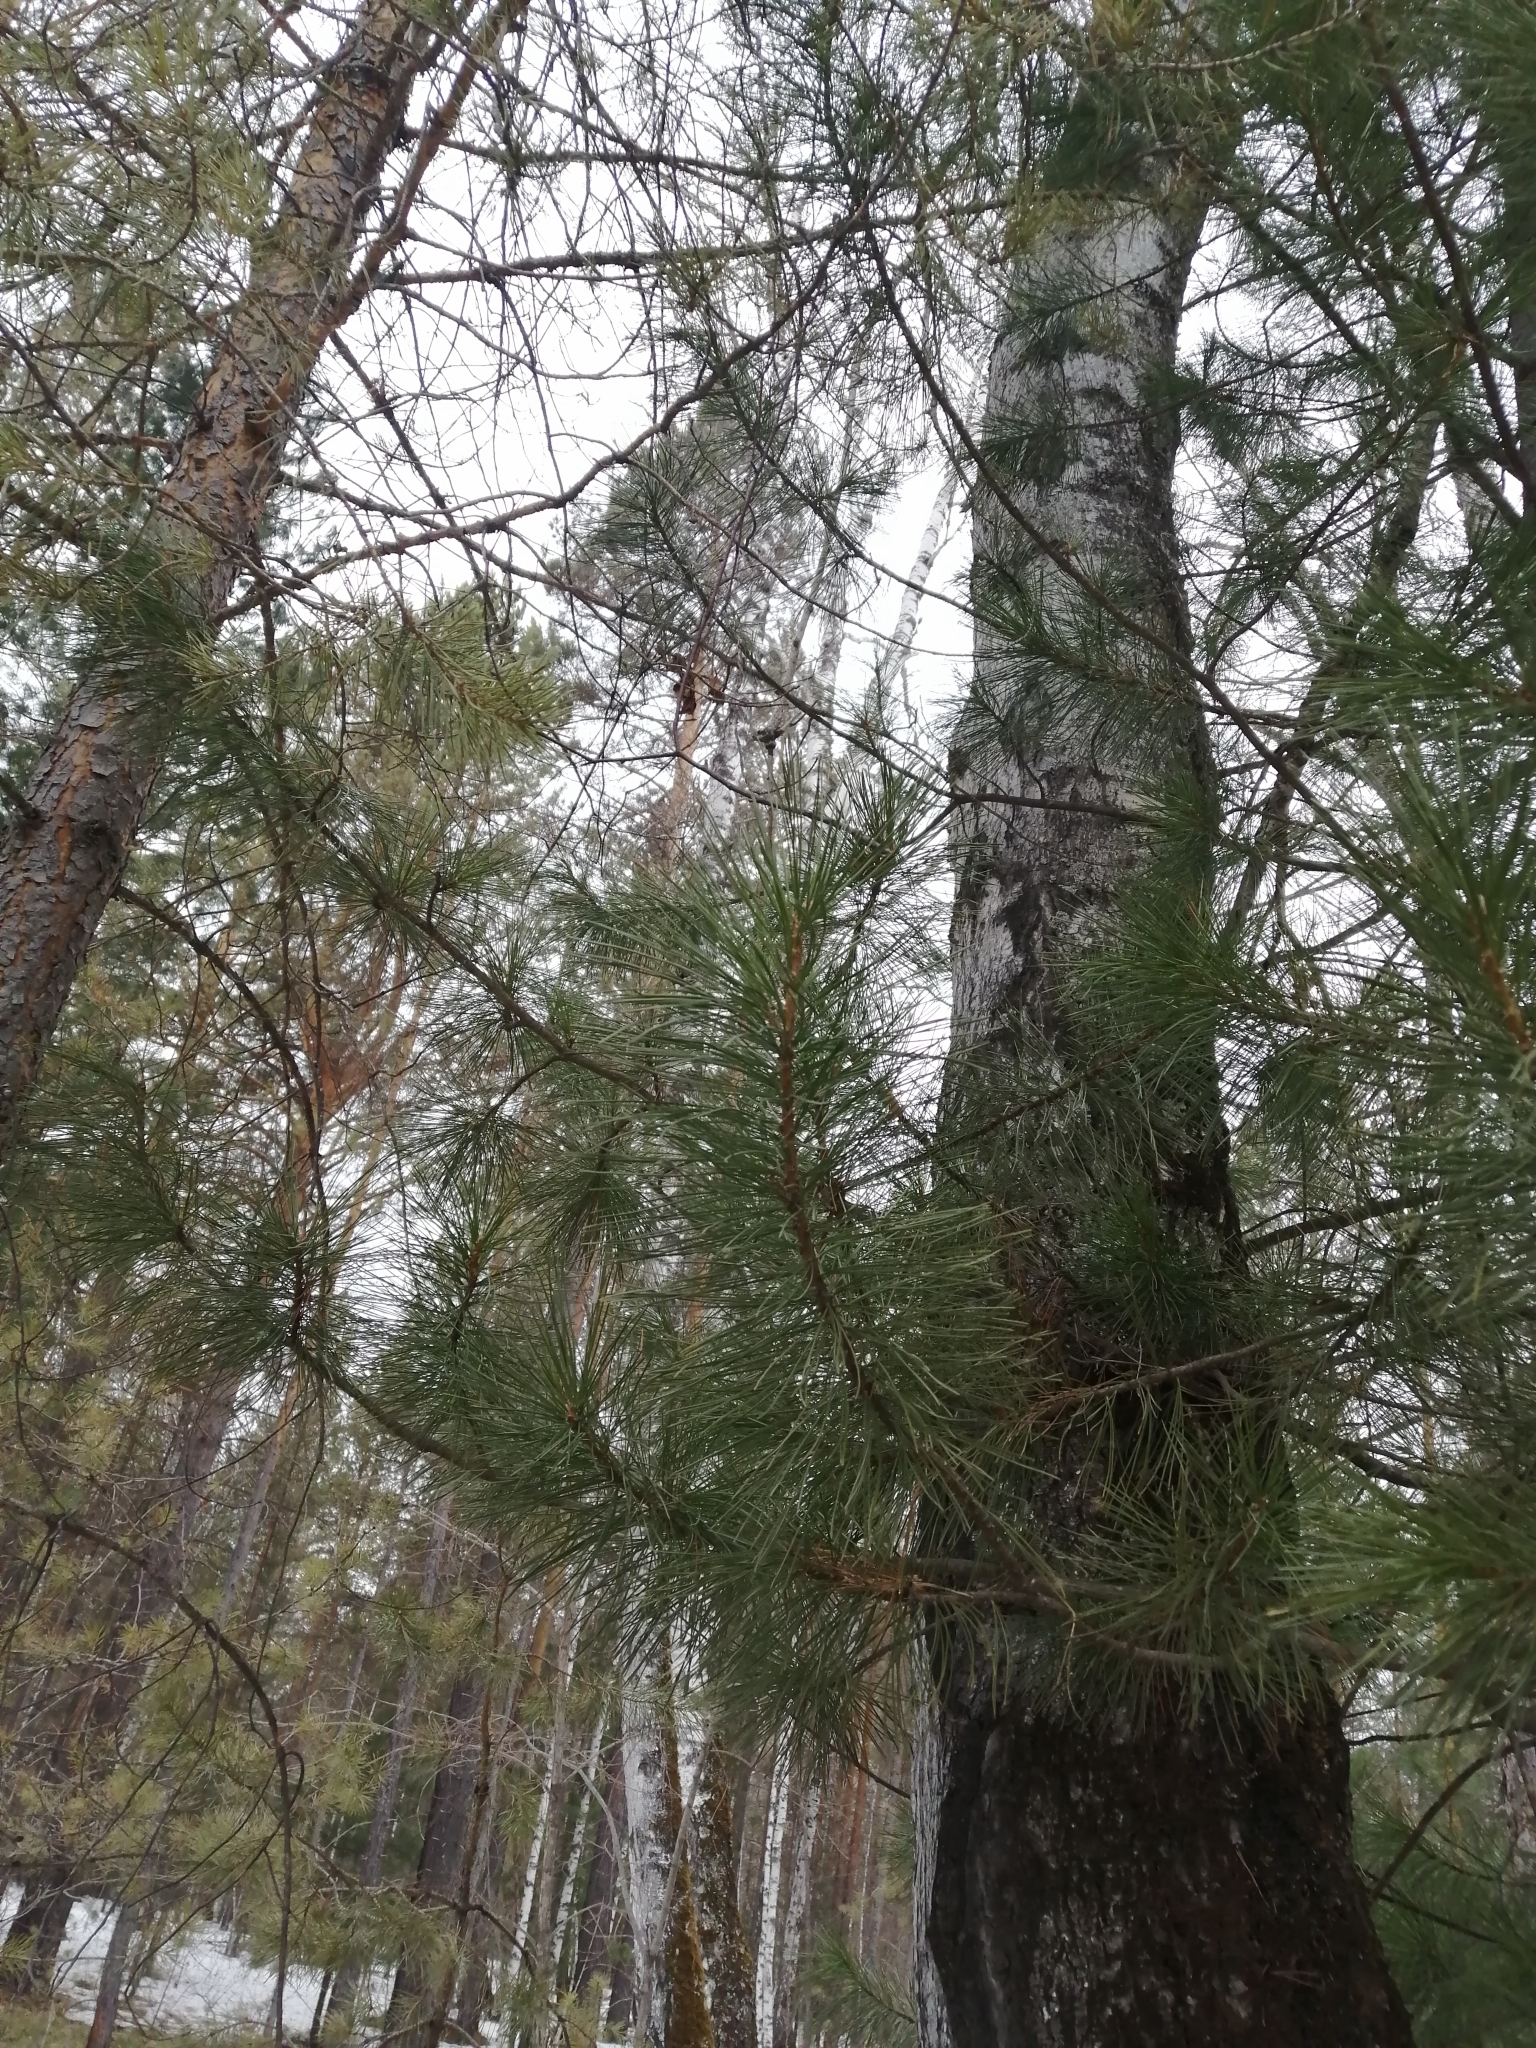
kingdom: Plantae
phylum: Tracheophyta
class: Pinopsida
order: Pinales
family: Pinaceae
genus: Pinus
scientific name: Pinus sibirica
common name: Siberian pine
